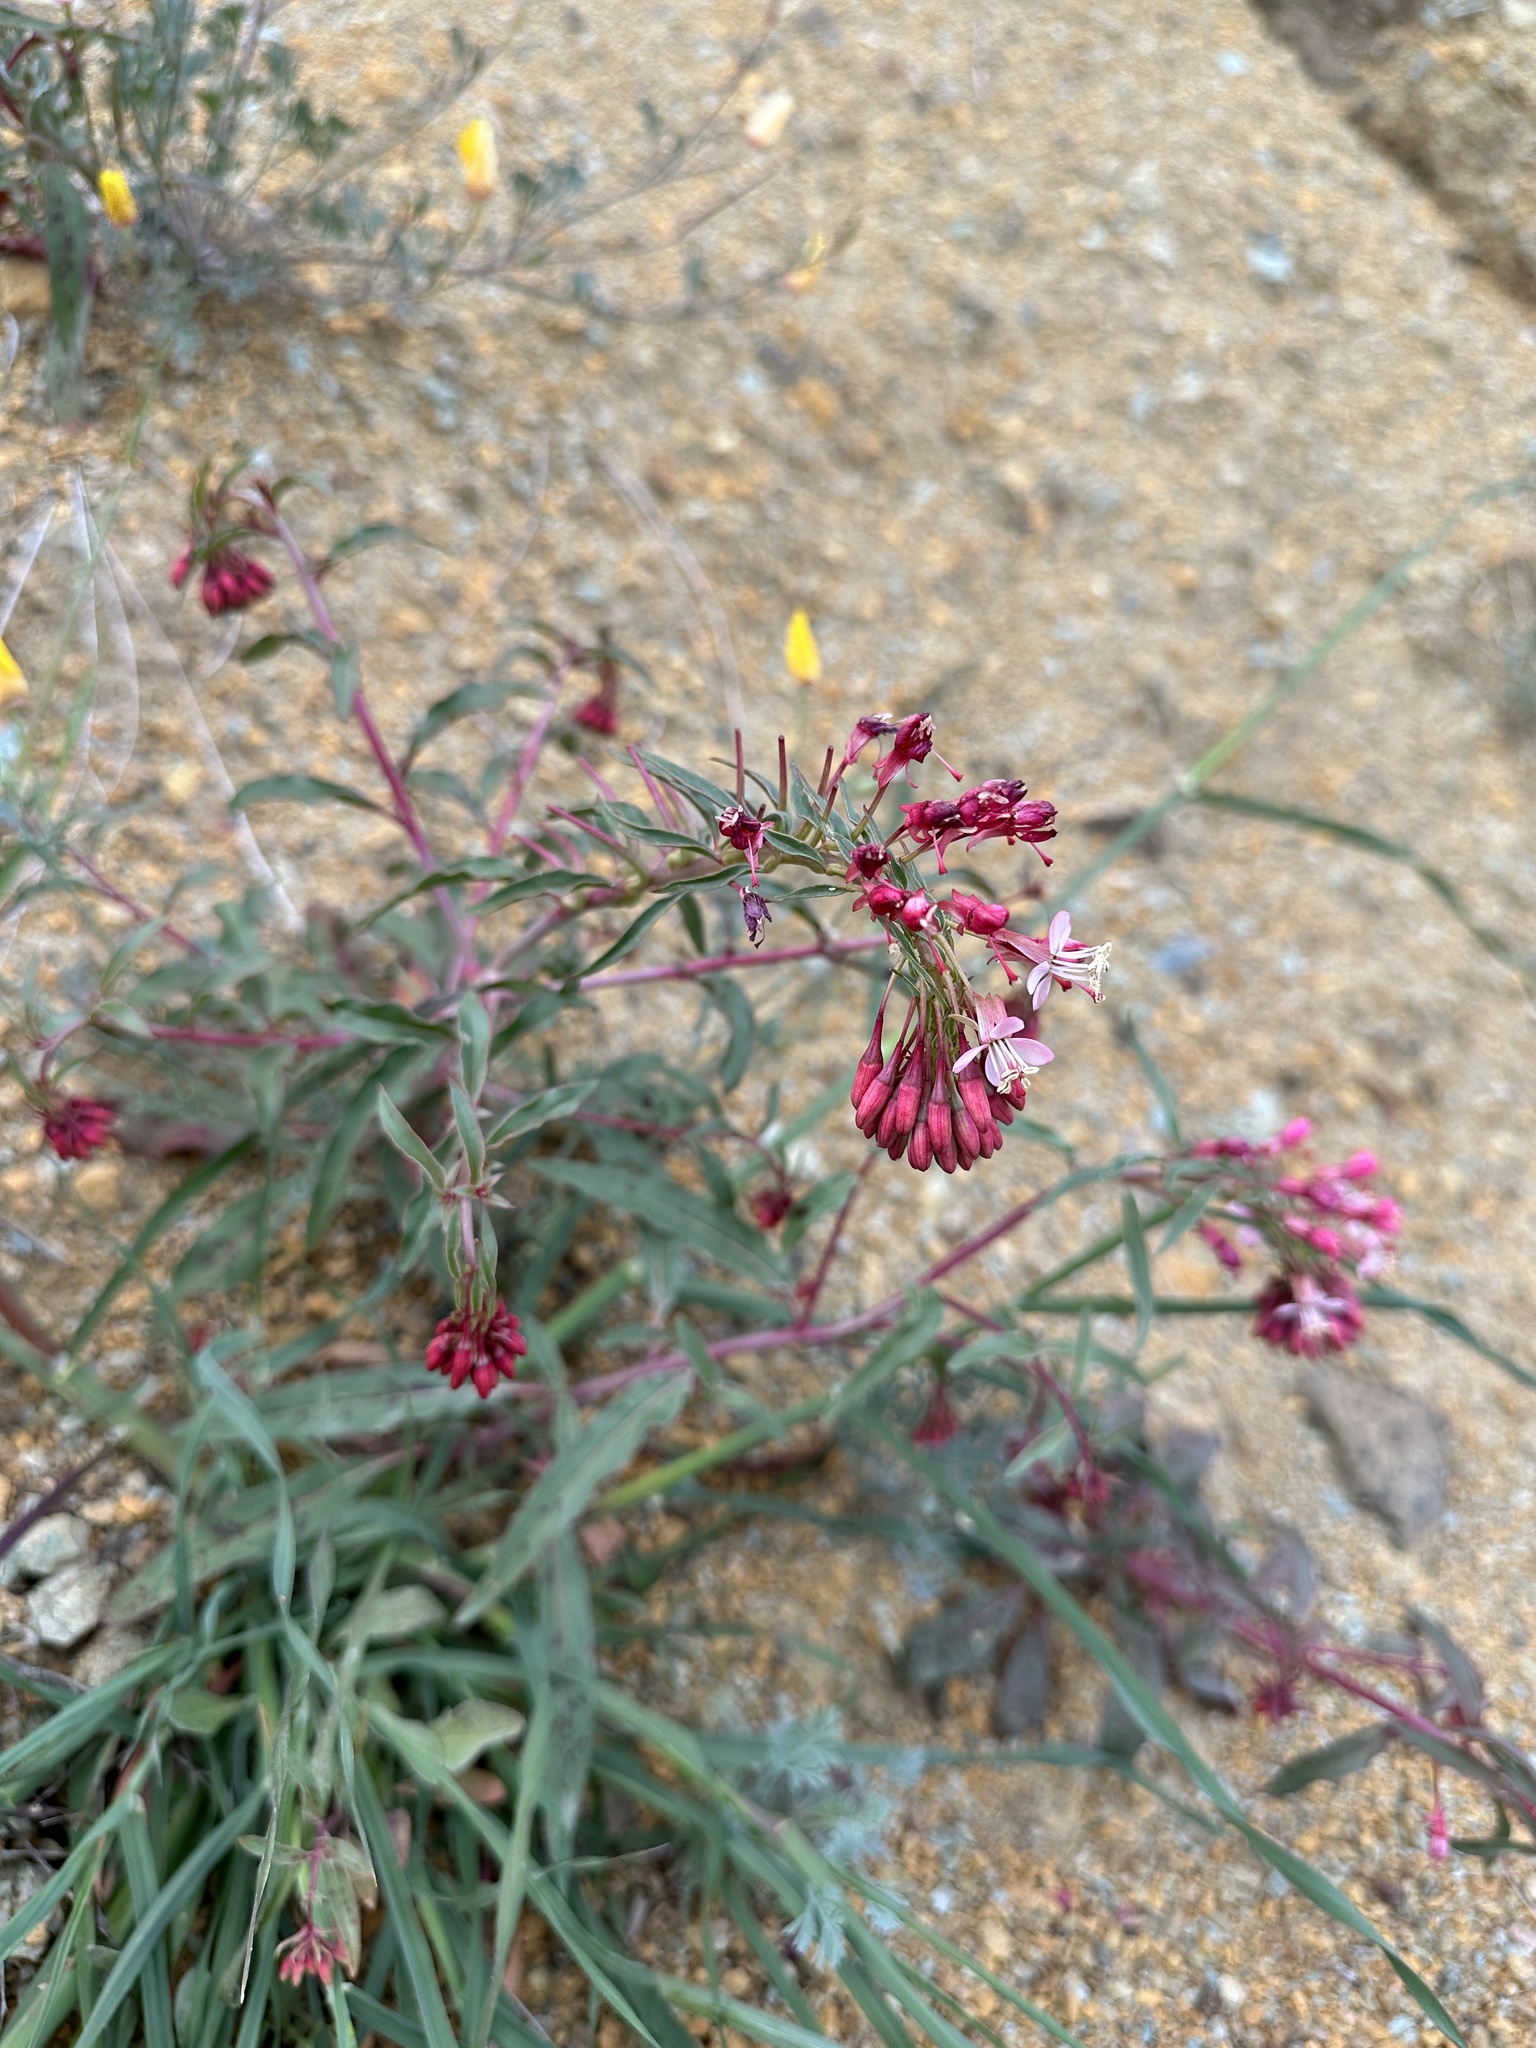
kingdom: Plantae
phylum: Tracheophyta
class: Magnoliopsida
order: Myrtales
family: Onagraceae
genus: Eremothera
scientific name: Eremothera boothii
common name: Booth's evening primrose
